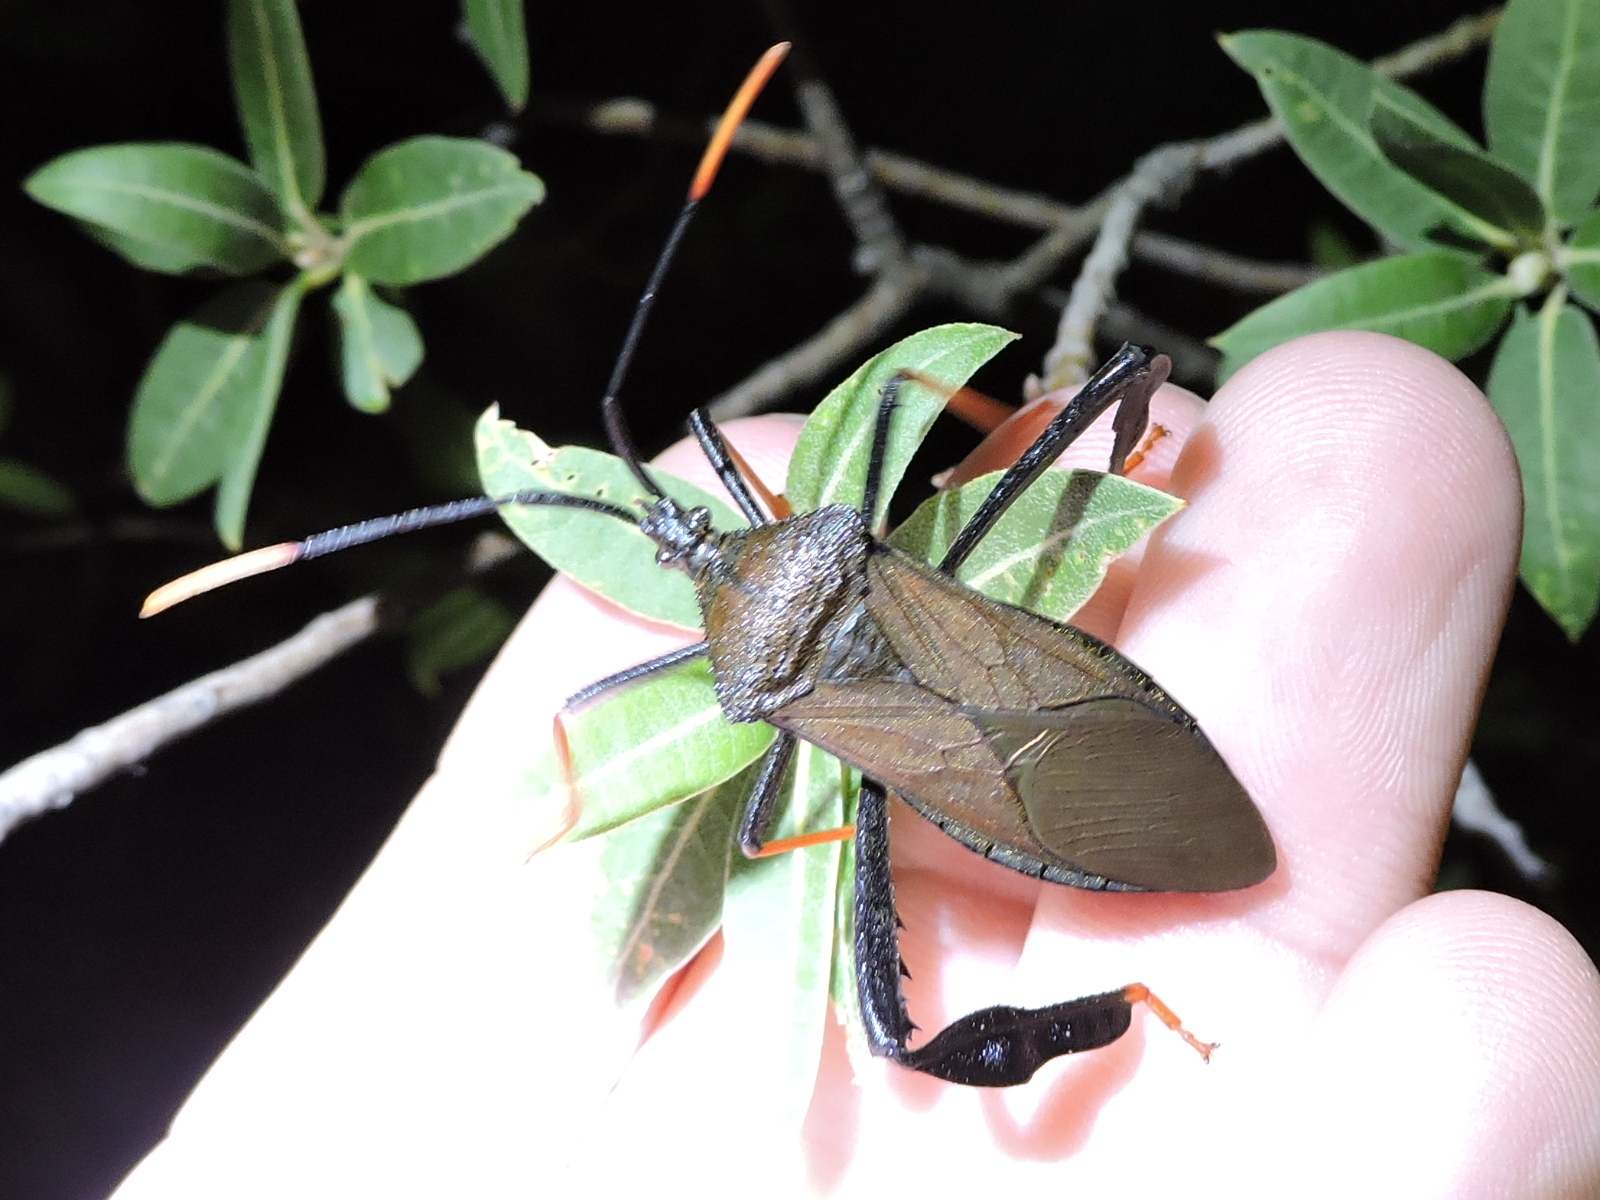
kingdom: Animalia
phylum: Arthropoda
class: Insecta
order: Hemiptera
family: Coreidae
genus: Acanthocephala
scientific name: Acanthocephala thomasi
